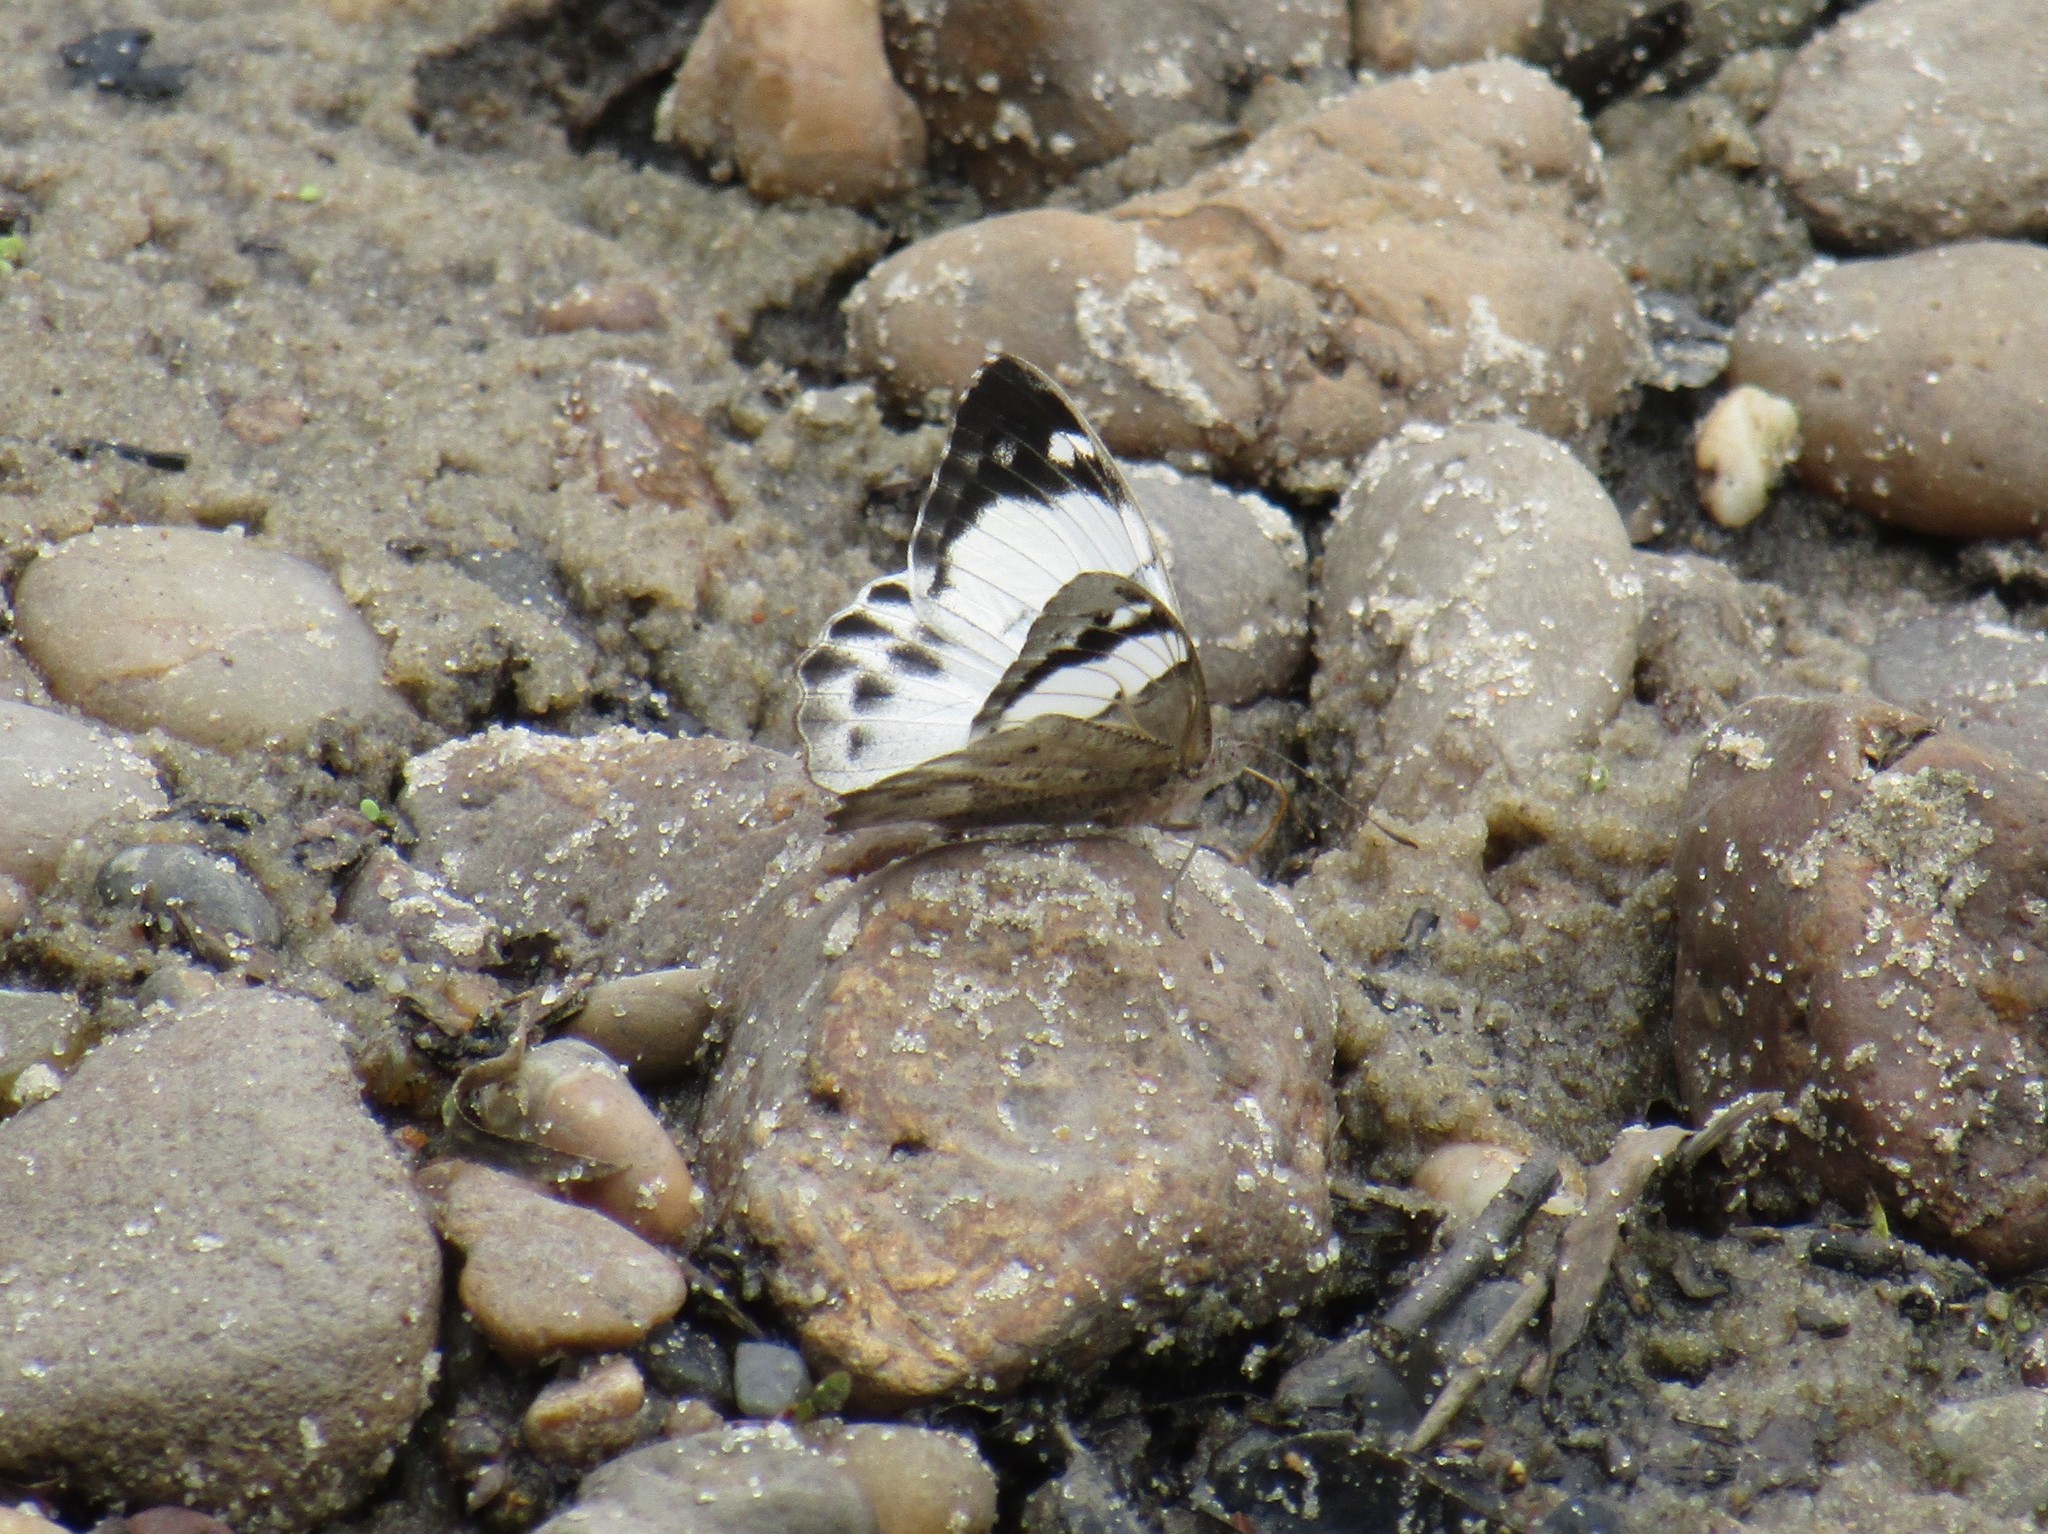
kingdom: Animalia
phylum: Arthropoda
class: Insecta
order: Lepidoptera
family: Nymphalidae
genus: Eunica
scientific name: Eunica eburnea
